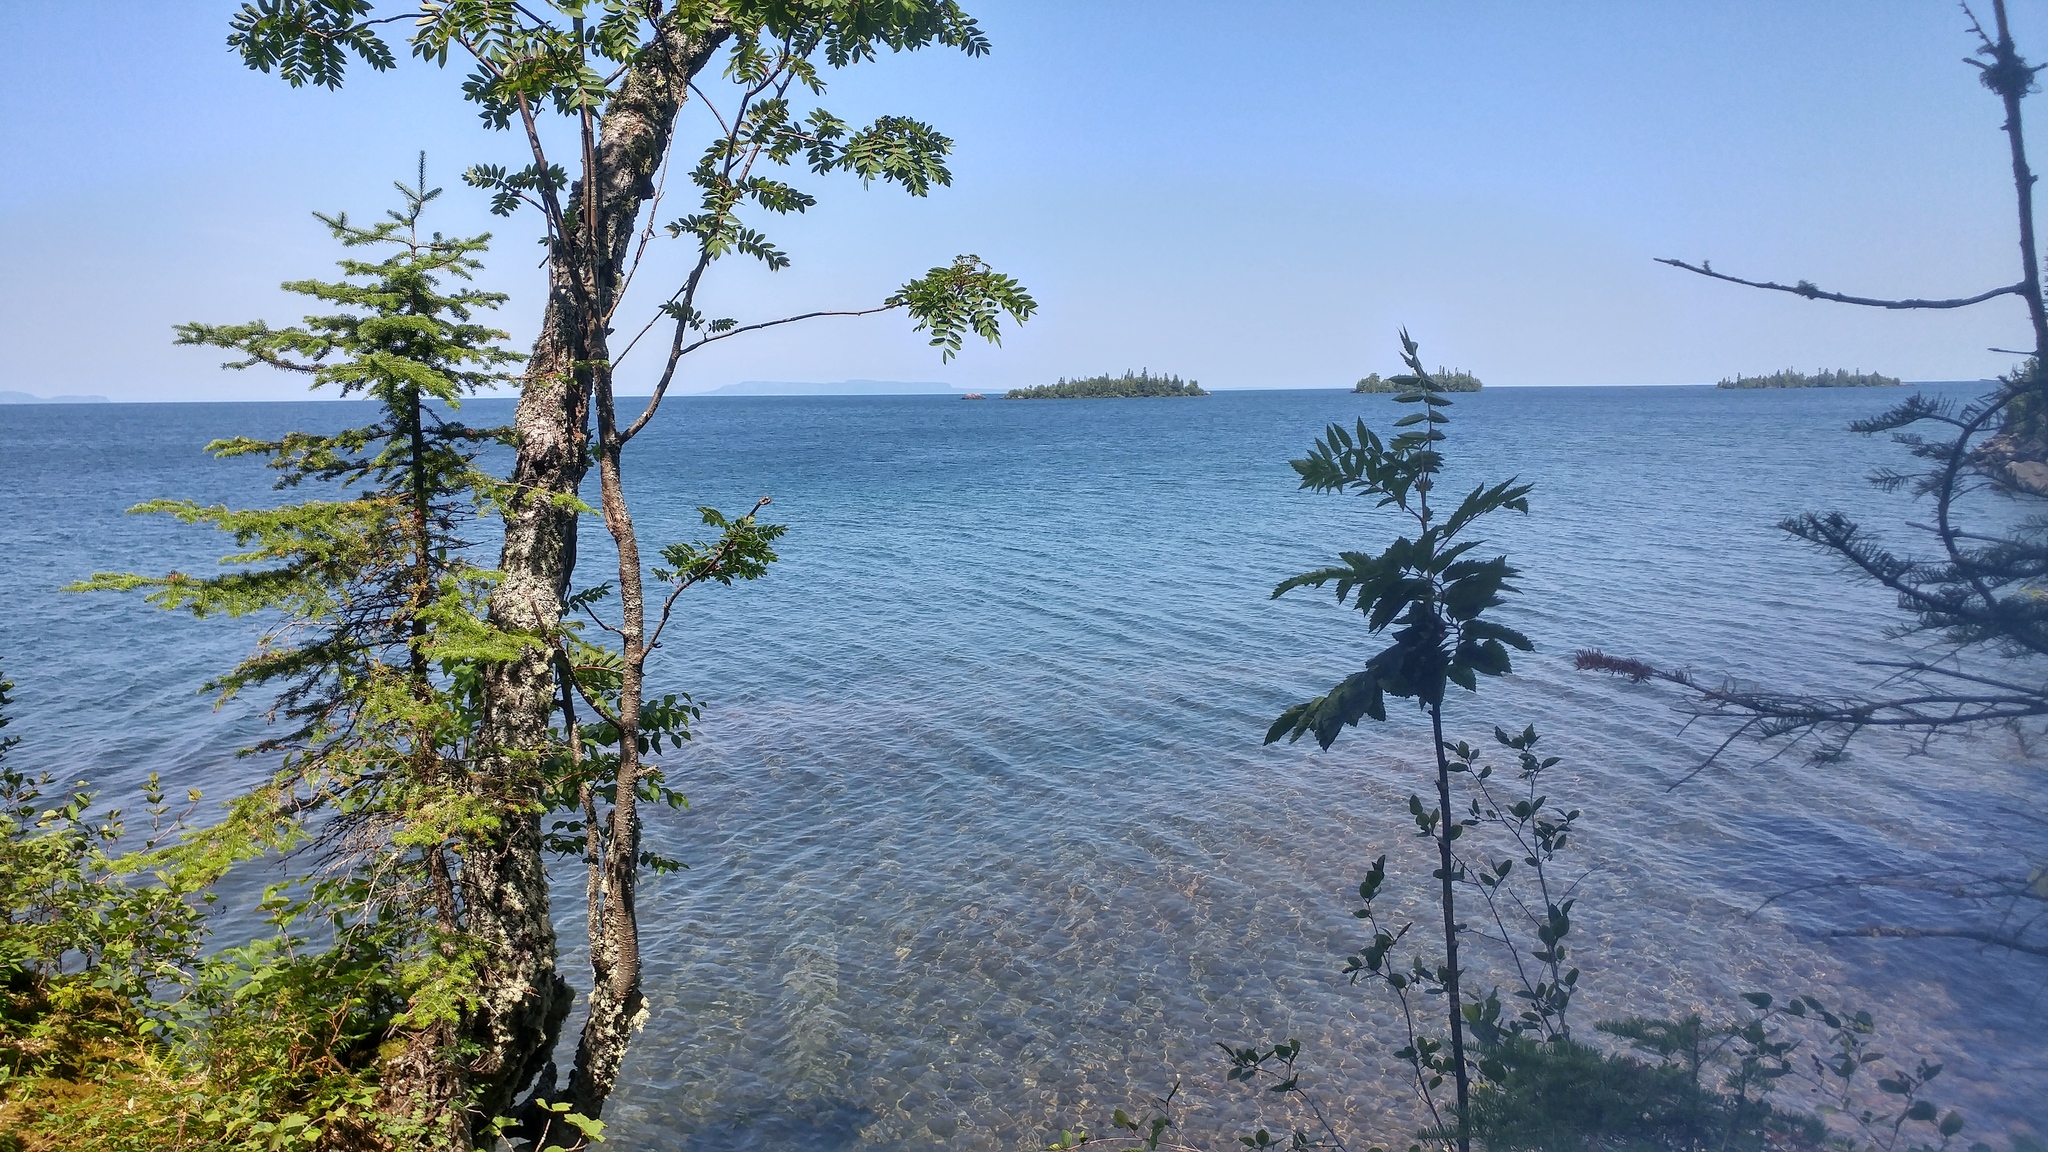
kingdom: Plantae
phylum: Tracheophyta
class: Magnoliopsida
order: Rosales
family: Rosaceae
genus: Sorbus
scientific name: Sorbus americana
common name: American mountain-ash
